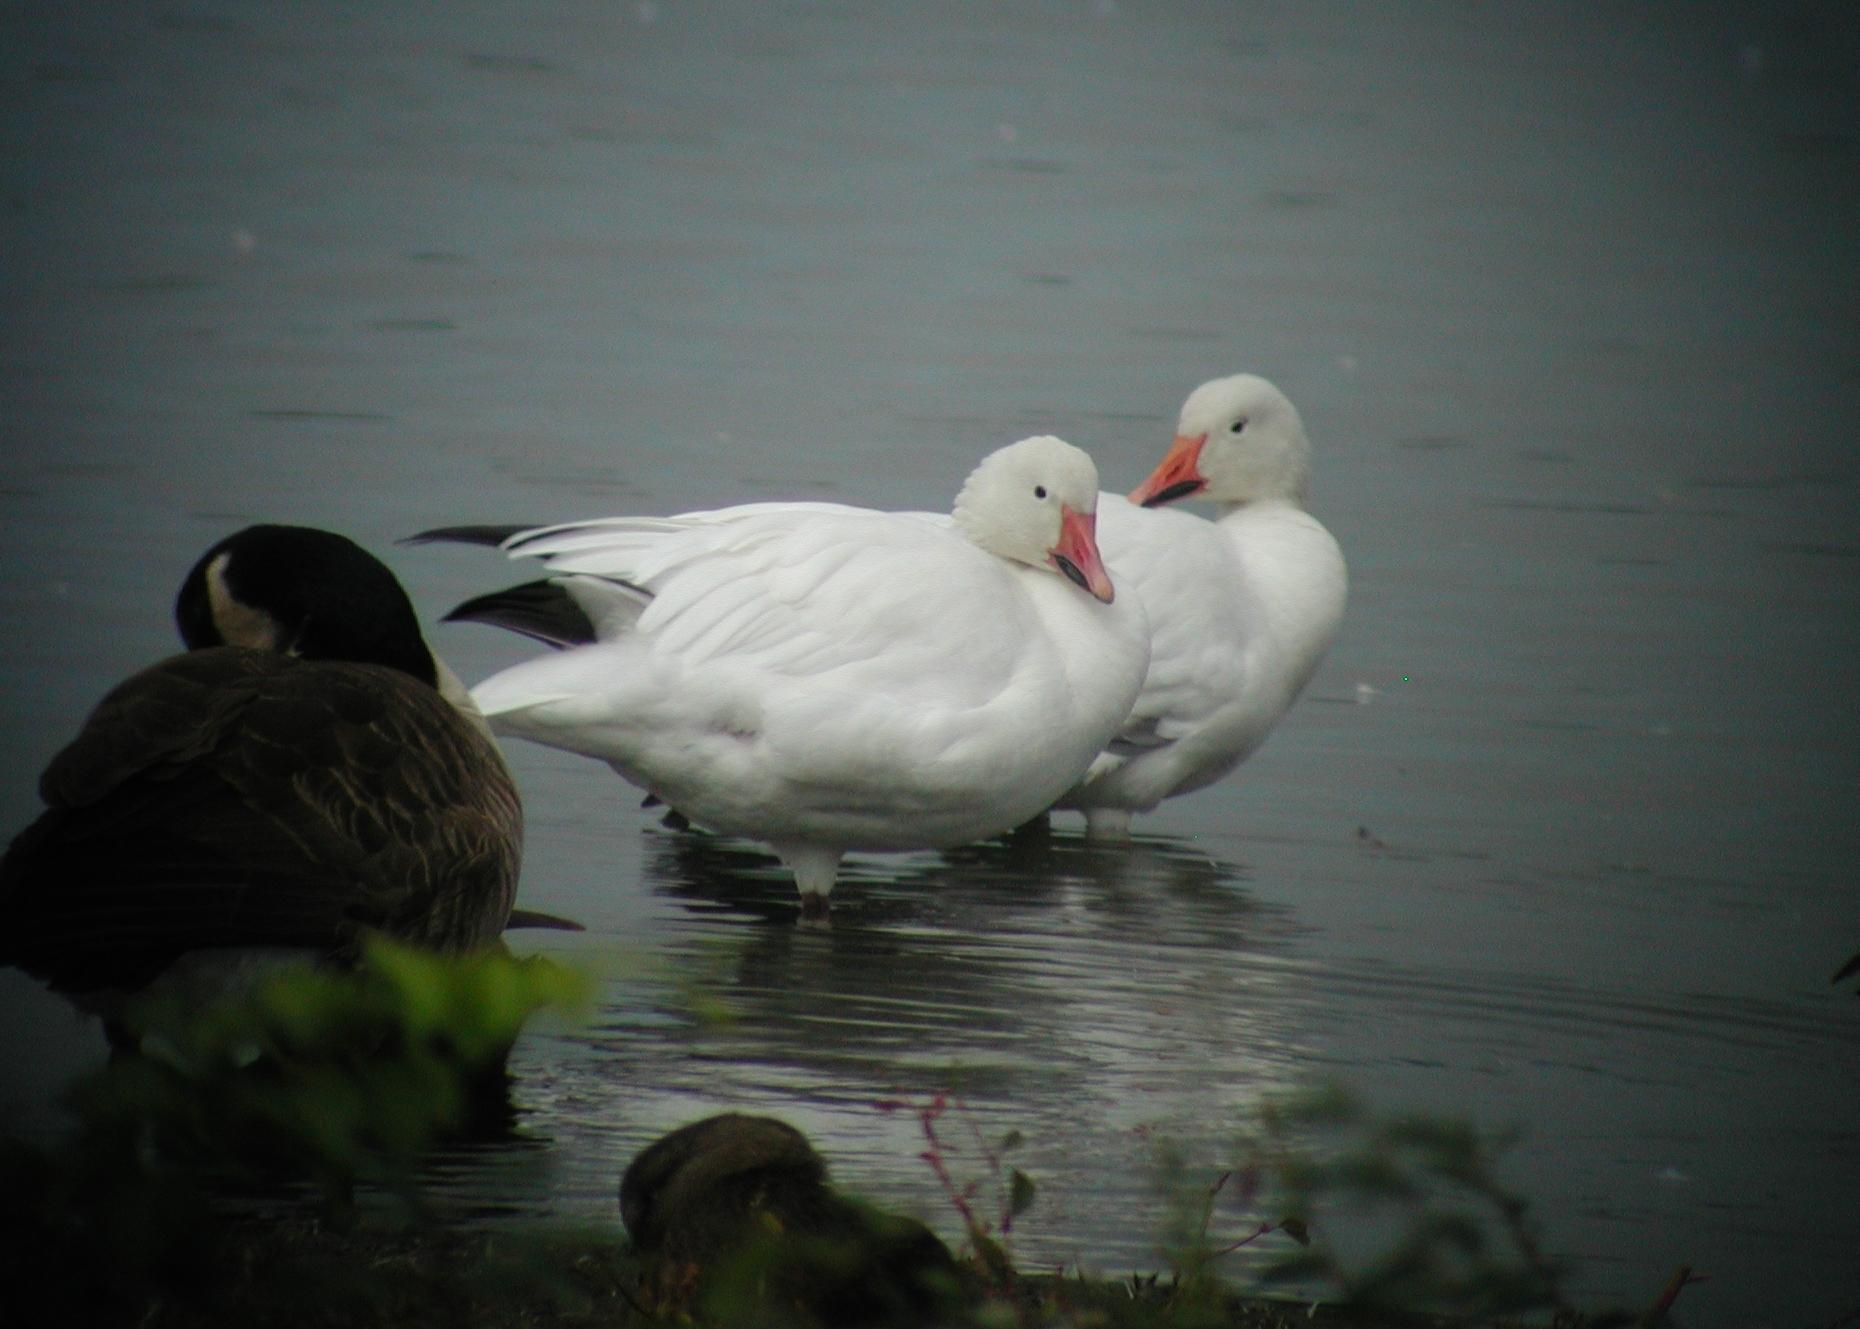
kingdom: Animalia
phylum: Chordata
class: Aves
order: Anseriformes
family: Anatidae
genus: Anser
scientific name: Anser caerulescens
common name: Snow goose
